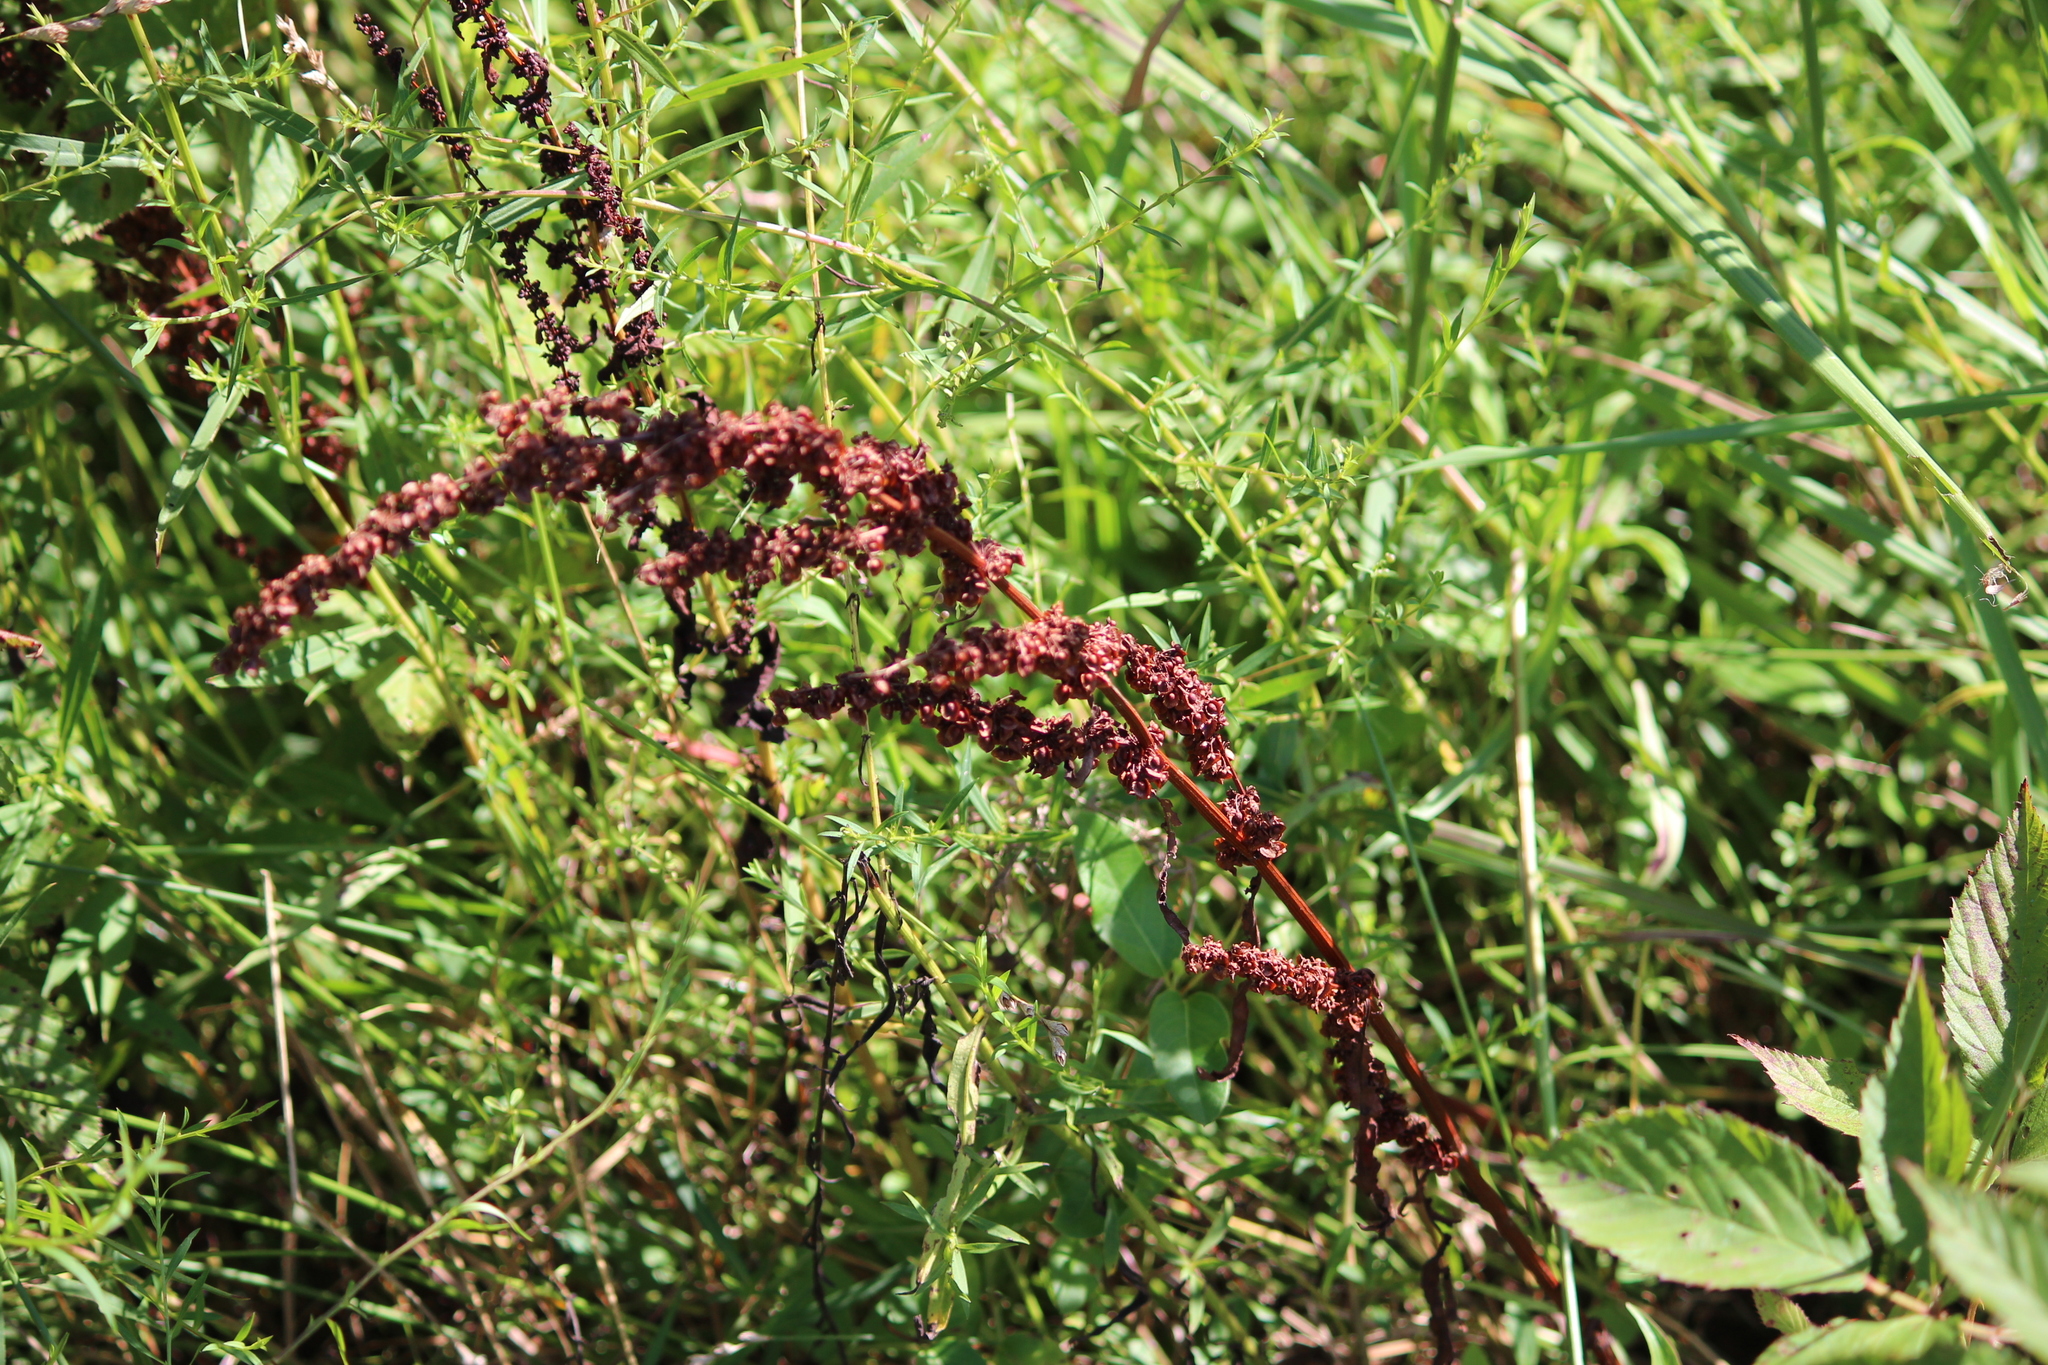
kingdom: Plantae
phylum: Tracheophyta
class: Magnoliopsida
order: Caryophyllales
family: Polygonaceae
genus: Rumex
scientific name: Rumex crispus
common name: Curled dock
